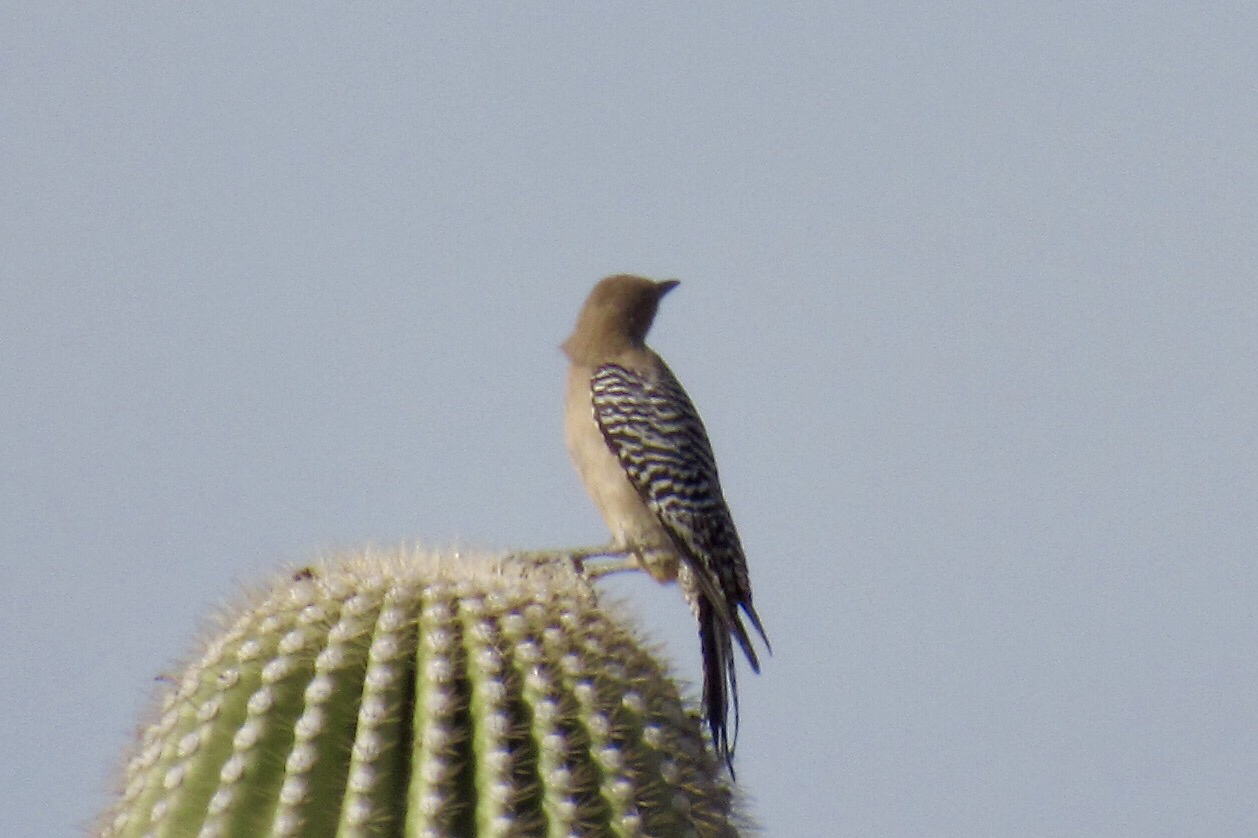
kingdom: Animalia
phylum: Chordata
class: Aves
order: Piciformes
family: Picidae
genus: Melanerpes
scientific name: Melanerpes uropygialis
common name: Gila woodpecker
